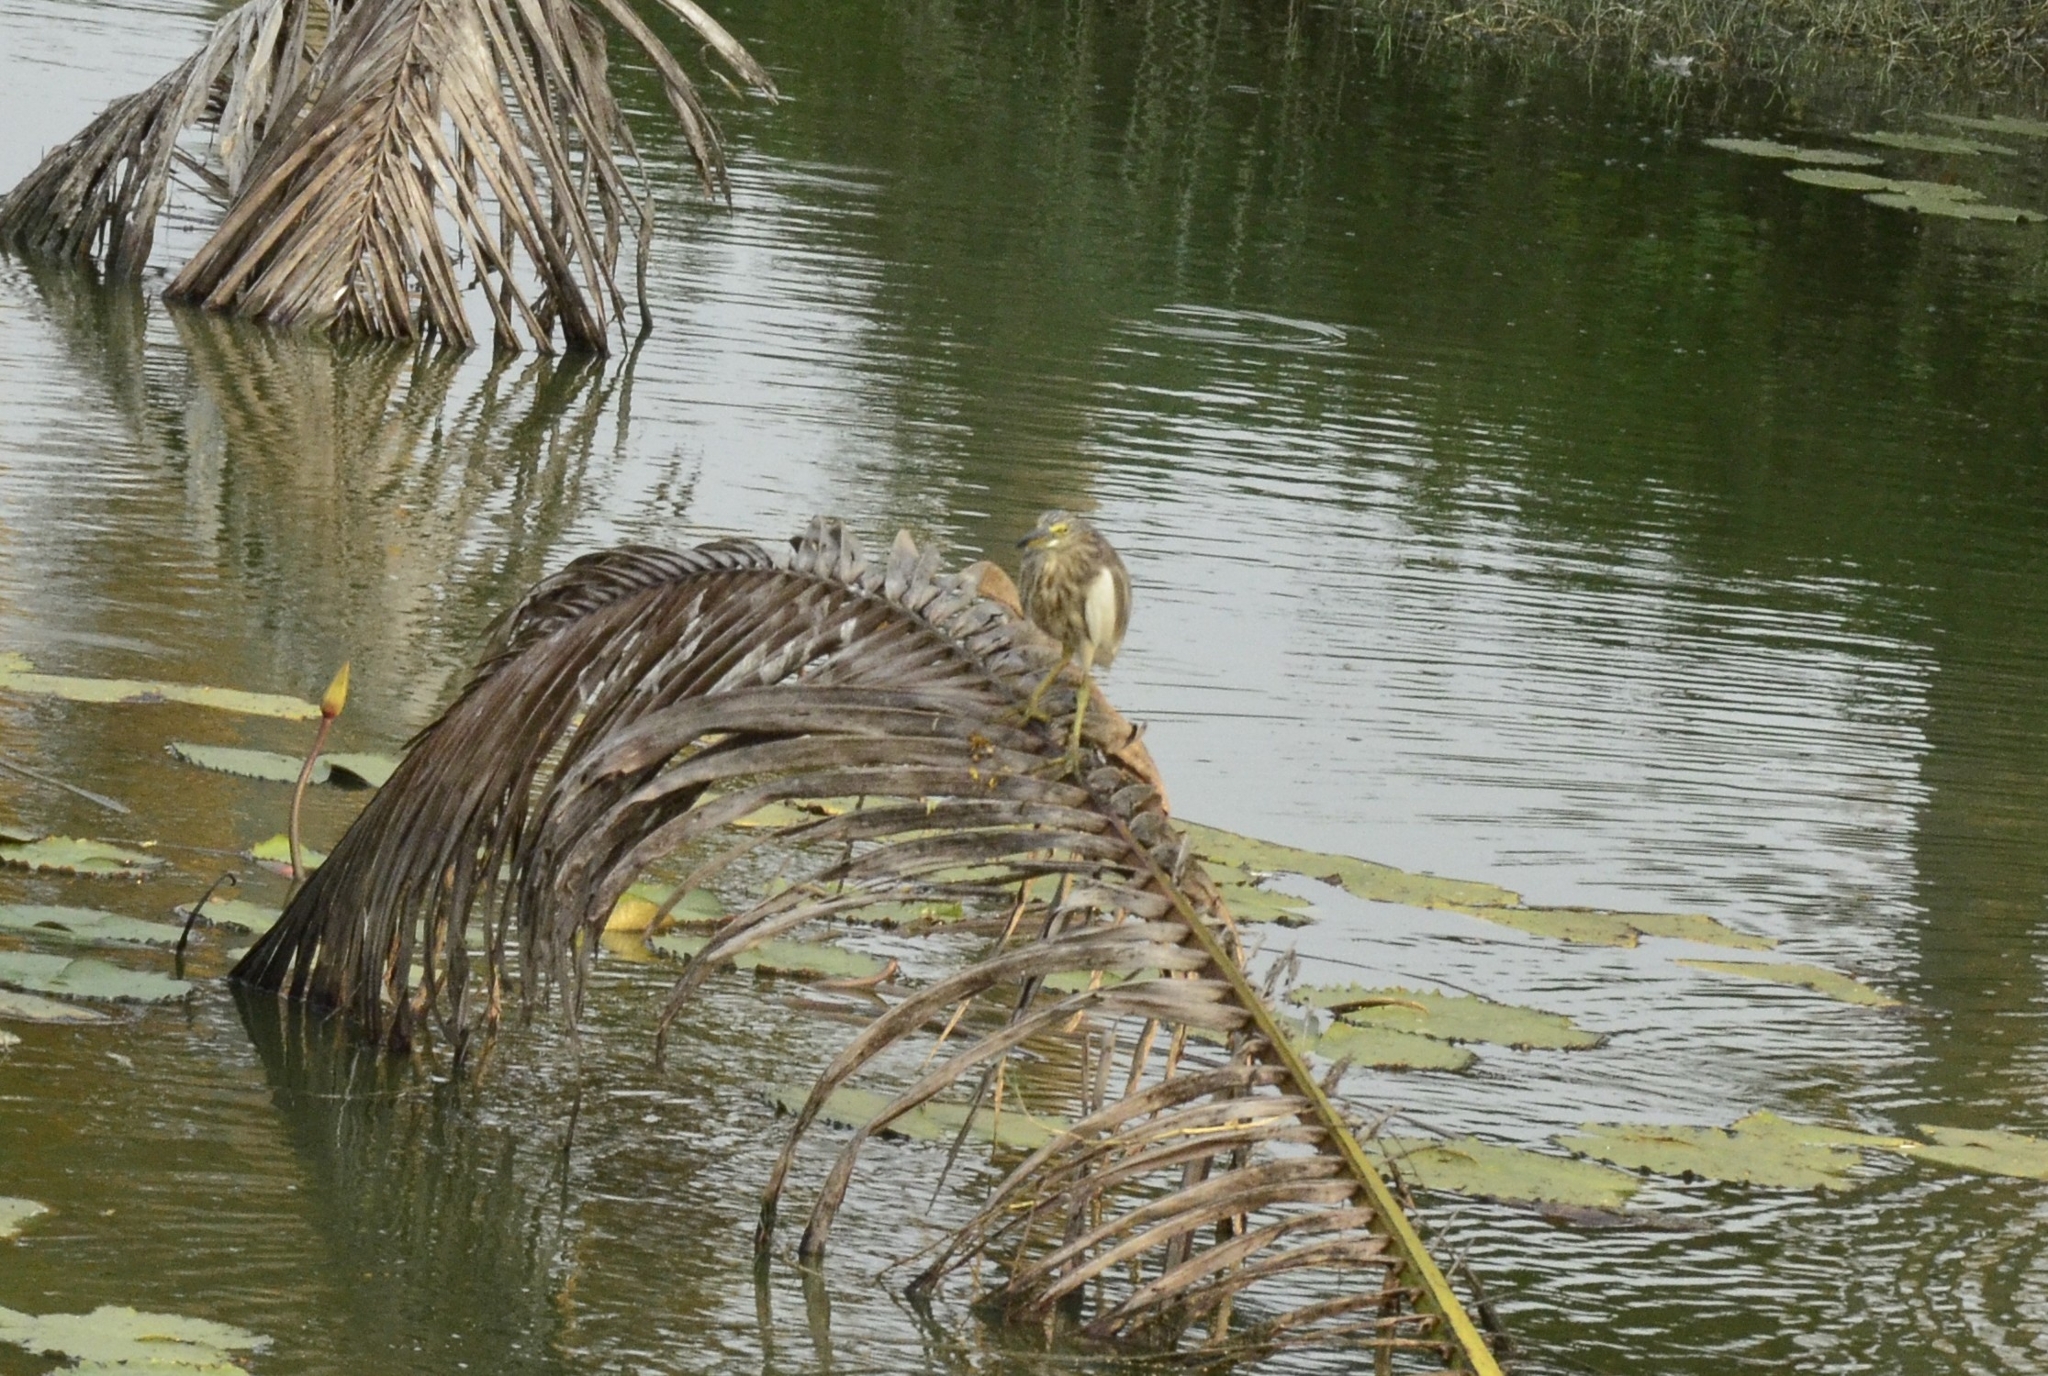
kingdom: Animalia
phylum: Chordata
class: Aves
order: Pelecaniformes
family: Ardeidae
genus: Ardeola
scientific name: Ardeola grayii
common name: Indian pond heron
